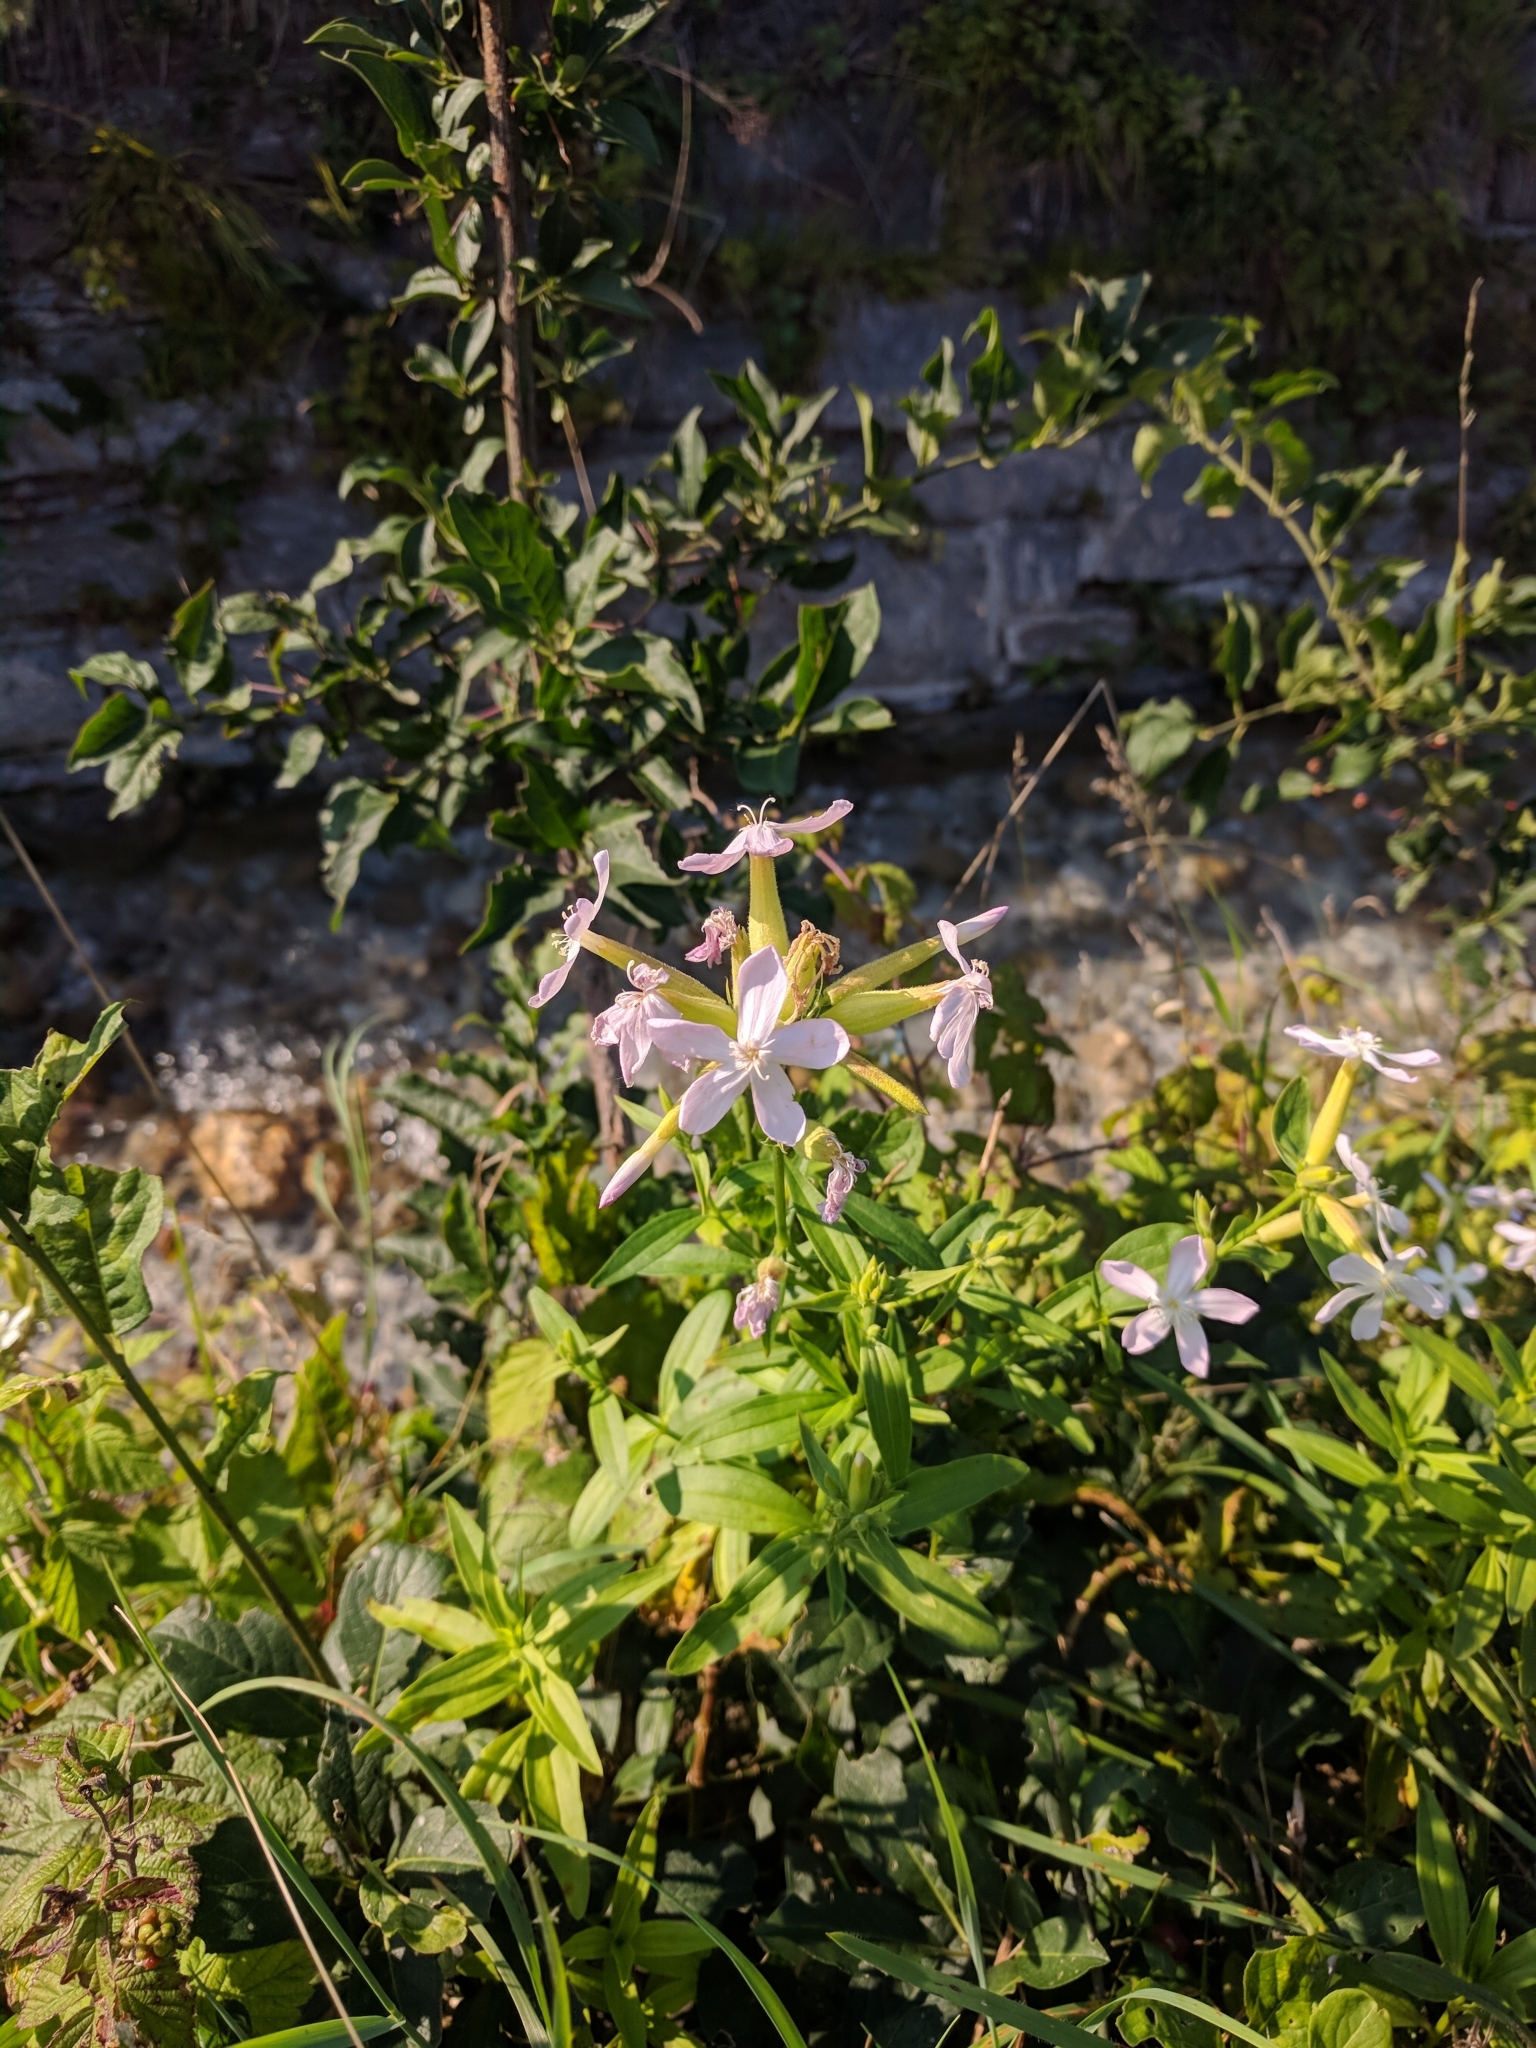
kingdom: Plantae
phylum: Tracheophyta
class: Magnoliopsida
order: Caryophyllales
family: Caryophyllaceae
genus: Saponaria
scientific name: Saponaria officinalis
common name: Soapwort
